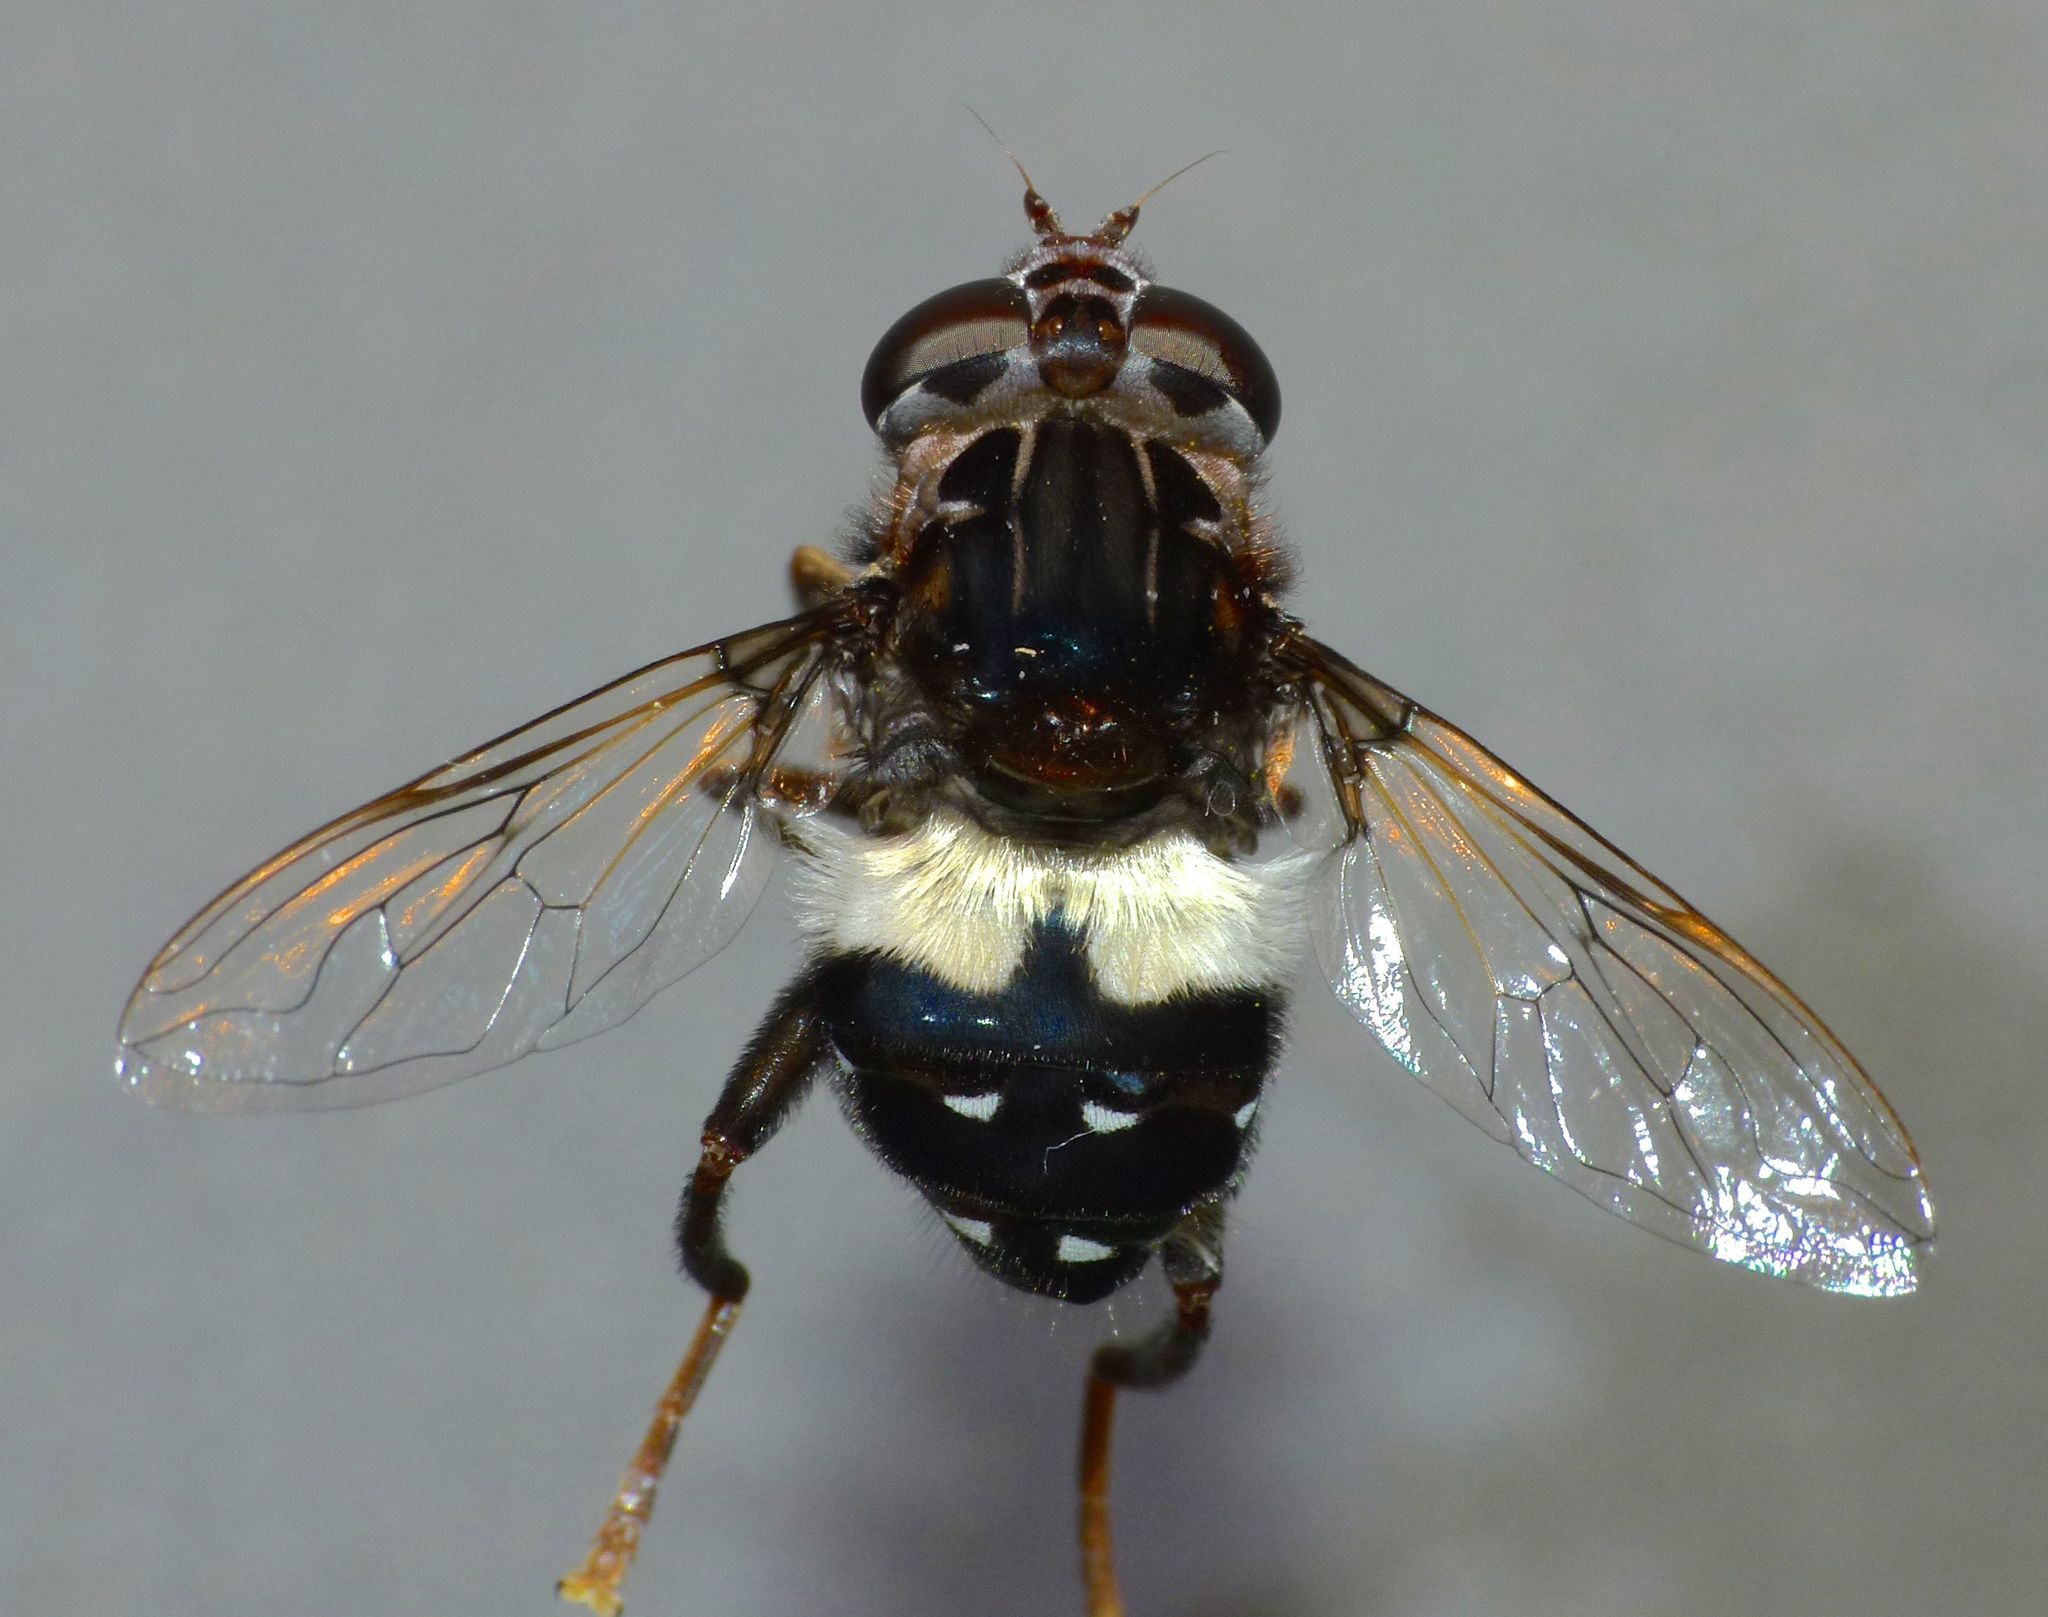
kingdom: Animalia
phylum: Arthropoda
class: Insecta
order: Diptera
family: Syrphidae
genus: Helophilus
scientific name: Helophilus cingulatus
